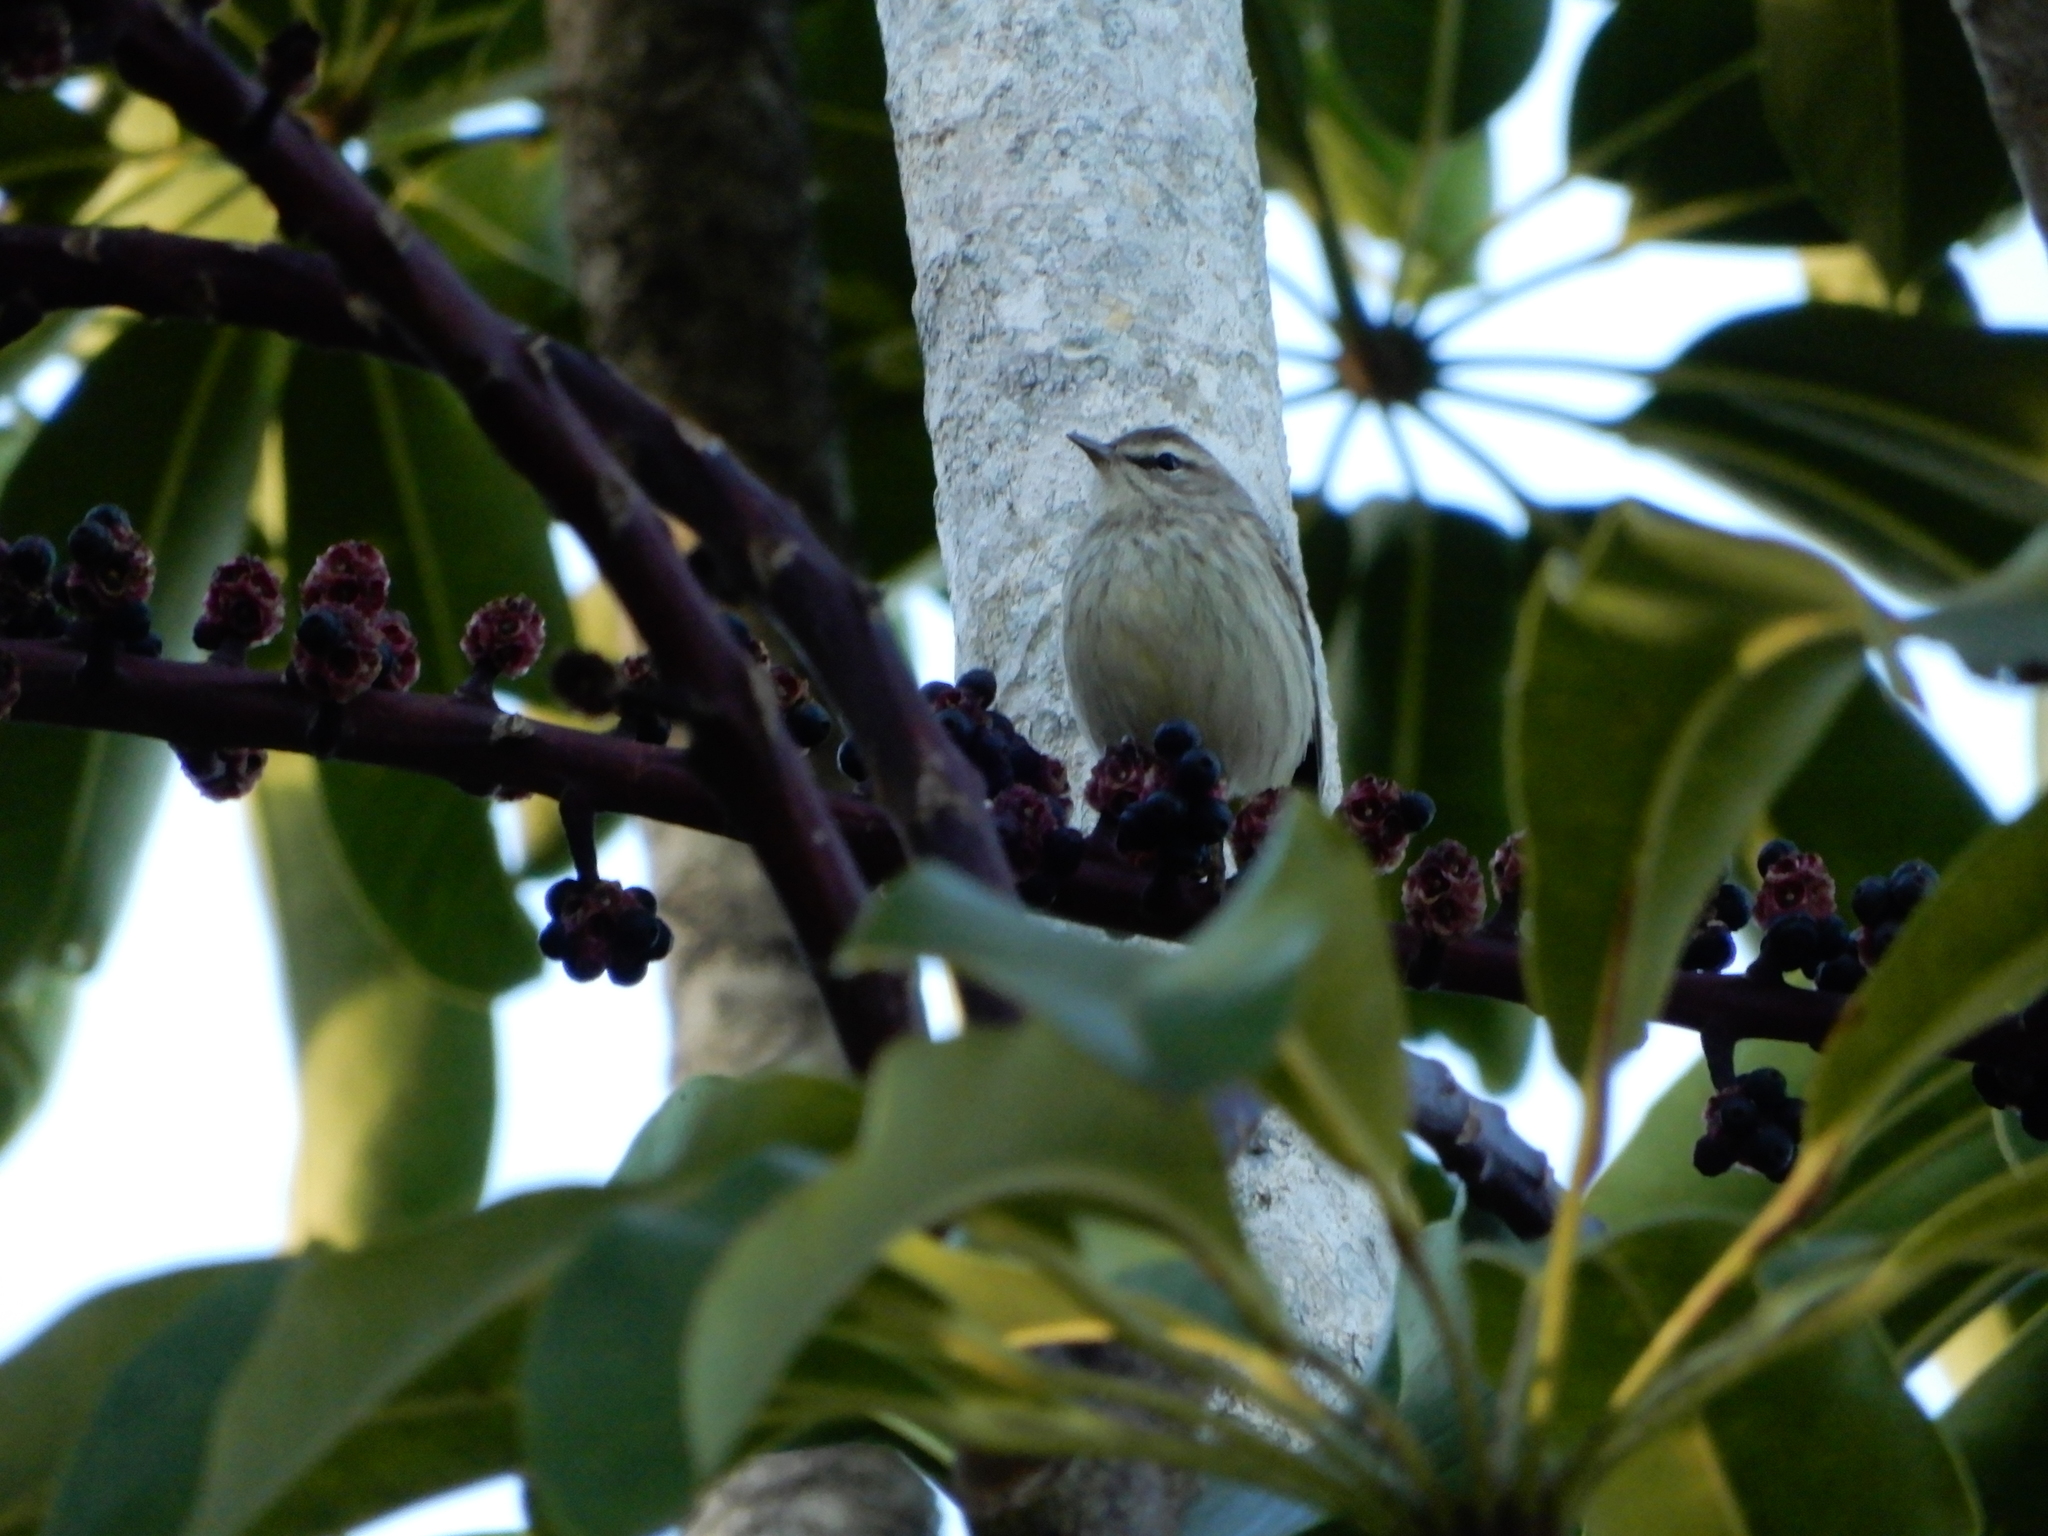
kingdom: Animalia
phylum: Chordata
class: Aves
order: Passeriformes
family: Parulidae
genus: Setophaga
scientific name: Setophaga palmarum
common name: Palm warbler
